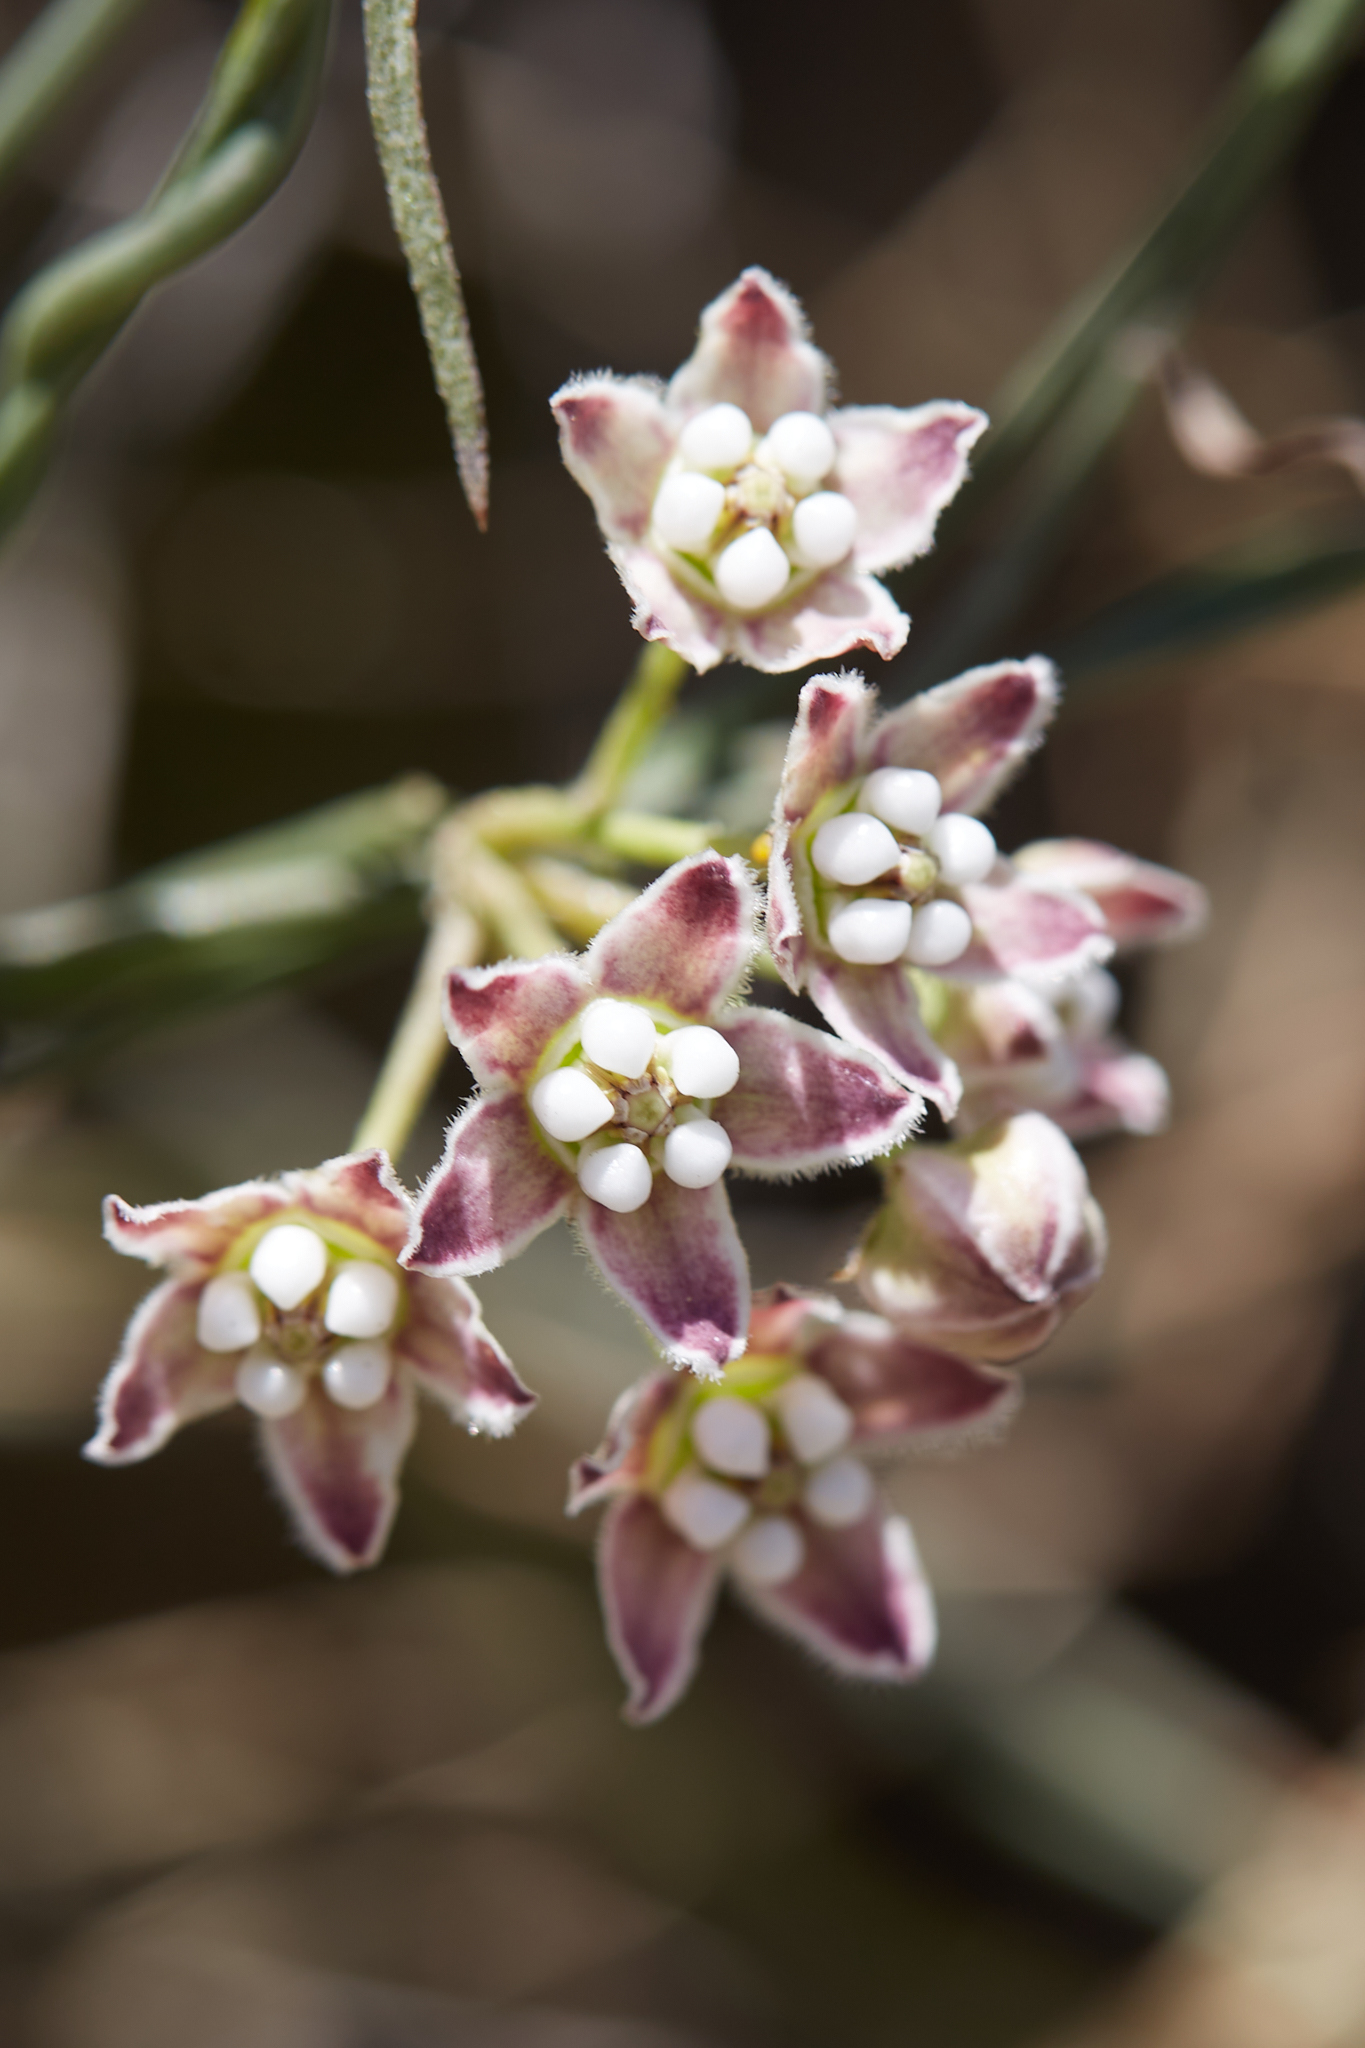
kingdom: Plantae
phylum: Tracheophyta
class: Magnoliopsida
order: Gentianales
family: Apocynaceae
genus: Funastrum
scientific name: Funastrum heterophyllum
